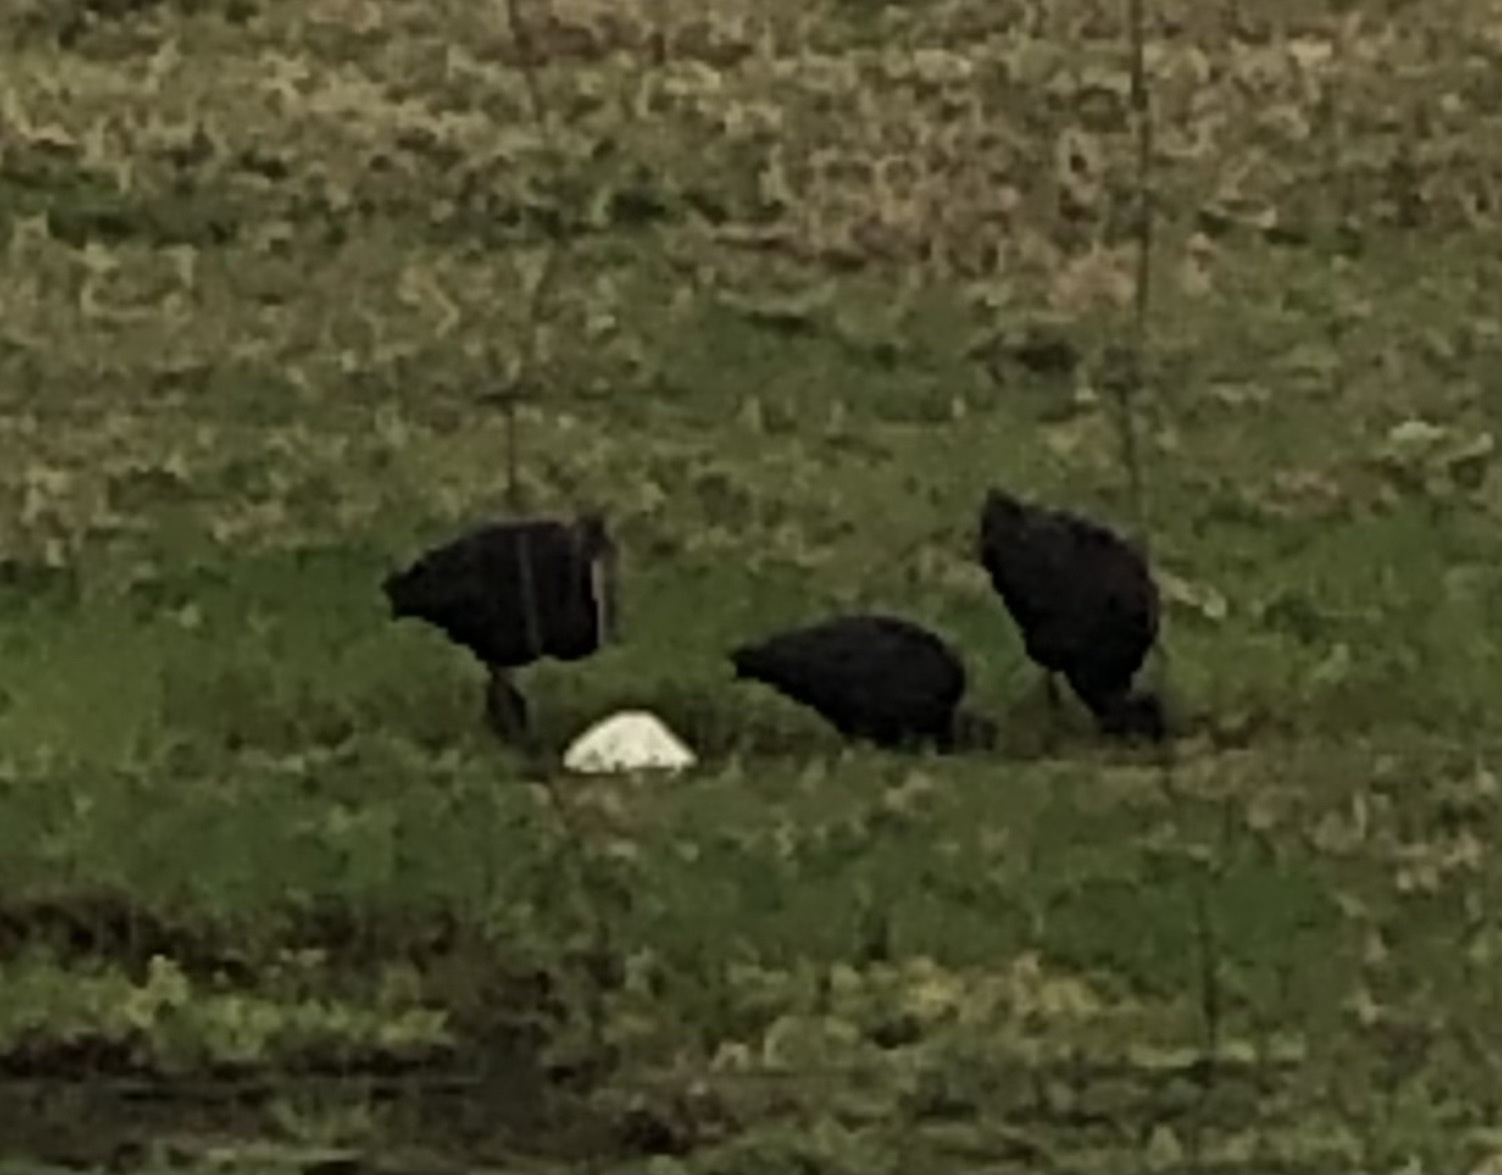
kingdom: Animalia
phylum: Chordata
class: Aves
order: Pelecaniformes
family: Threskiornithidae
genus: Plegadis
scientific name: Plegadis chihi
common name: White-faced ibis
